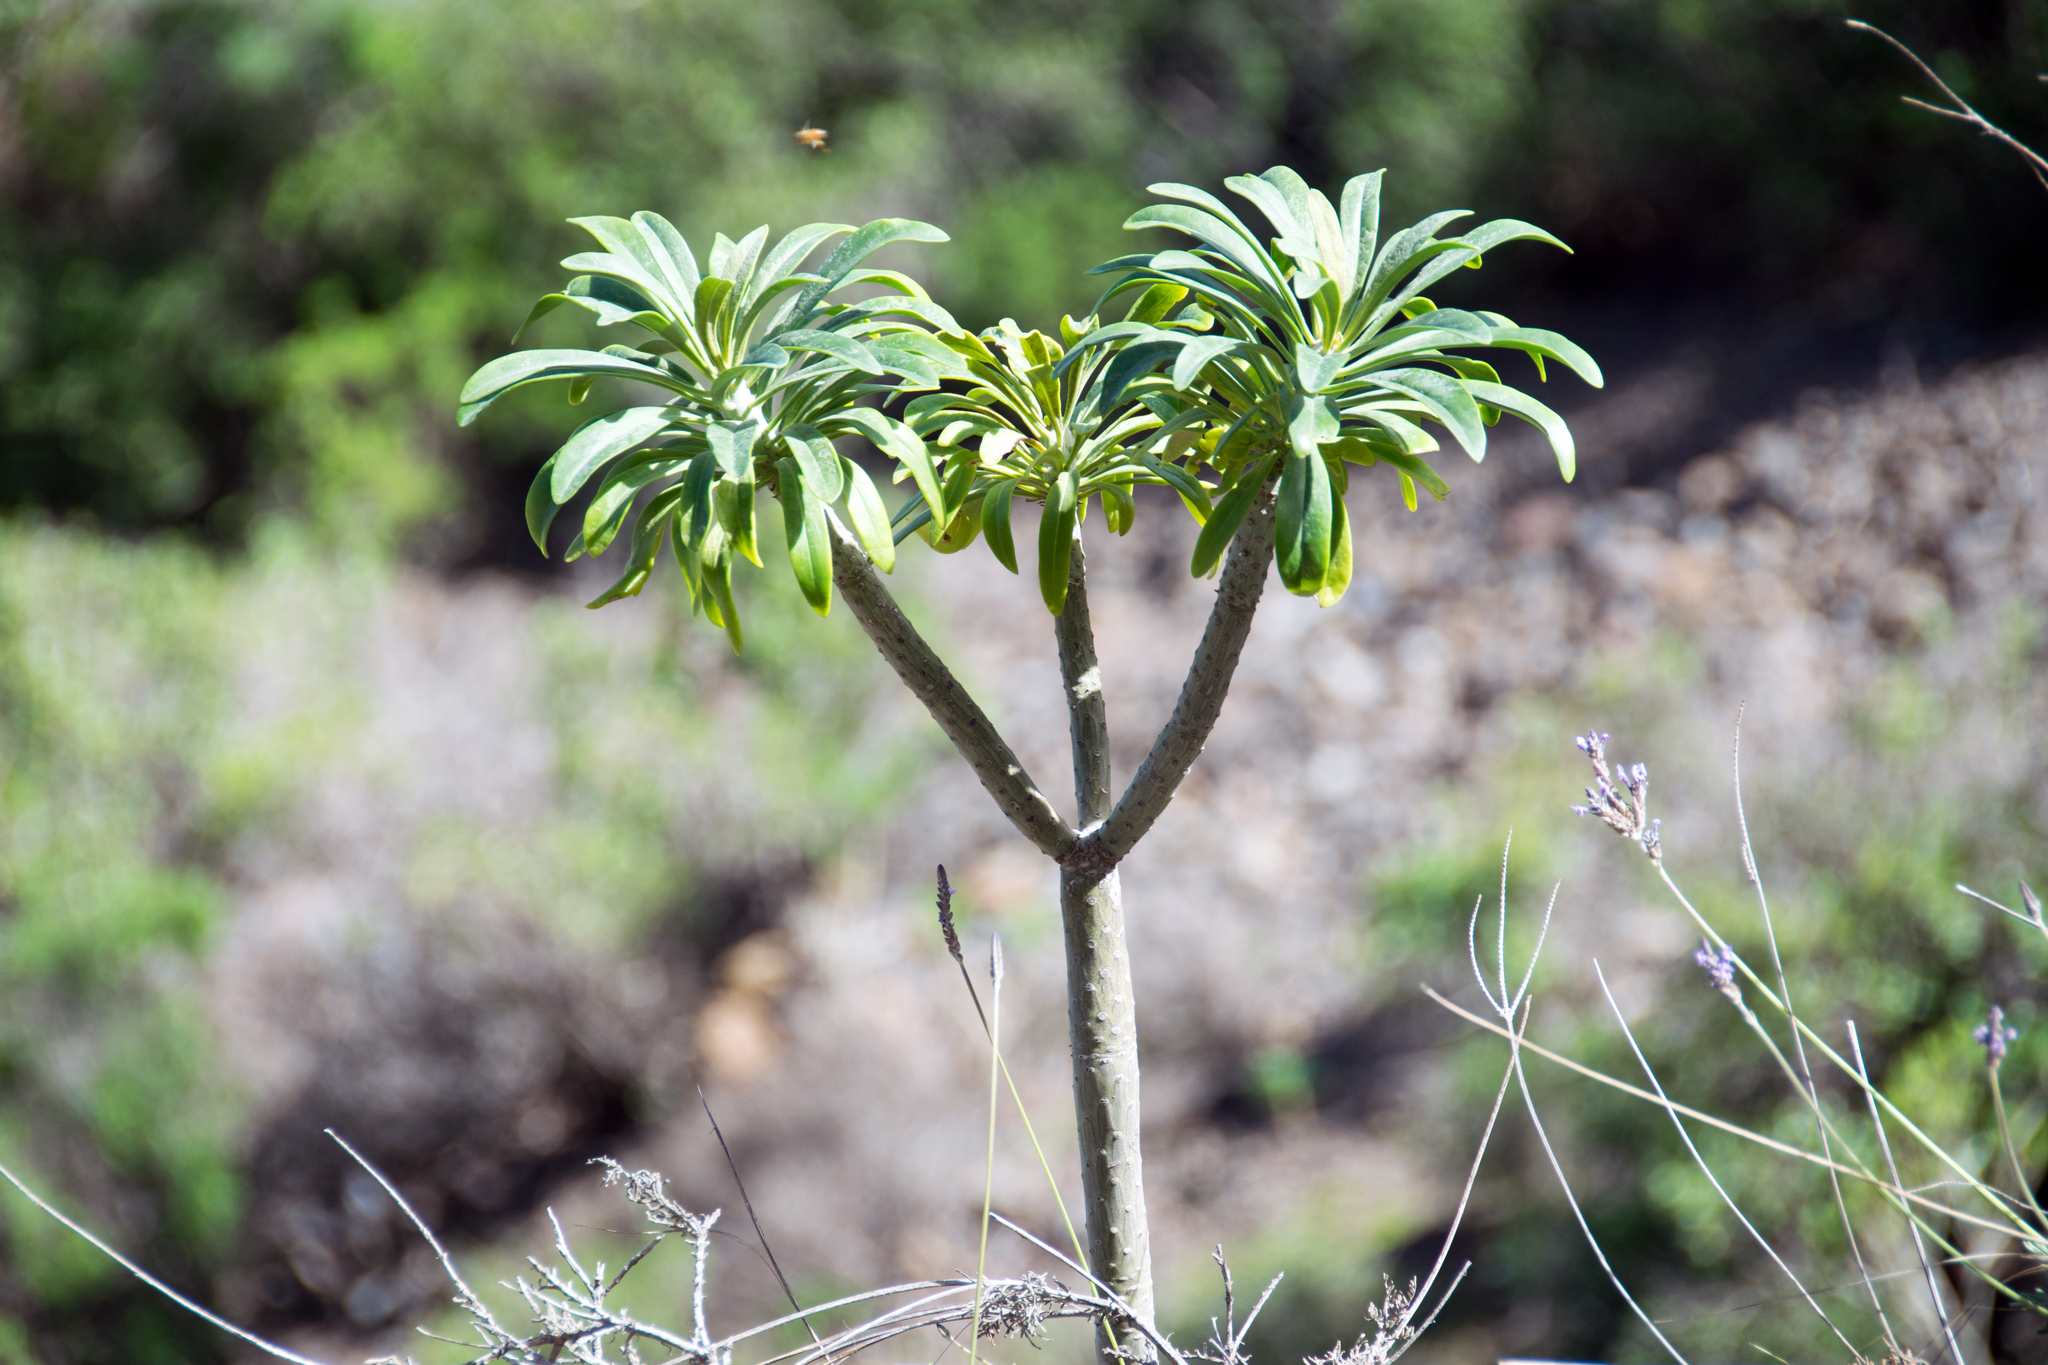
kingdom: Plantae
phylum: Tracheophyta
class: Magnoliopsida
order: Asterales
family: Asteraceae
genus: Kleinia
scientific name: Kleinia neriifolia
